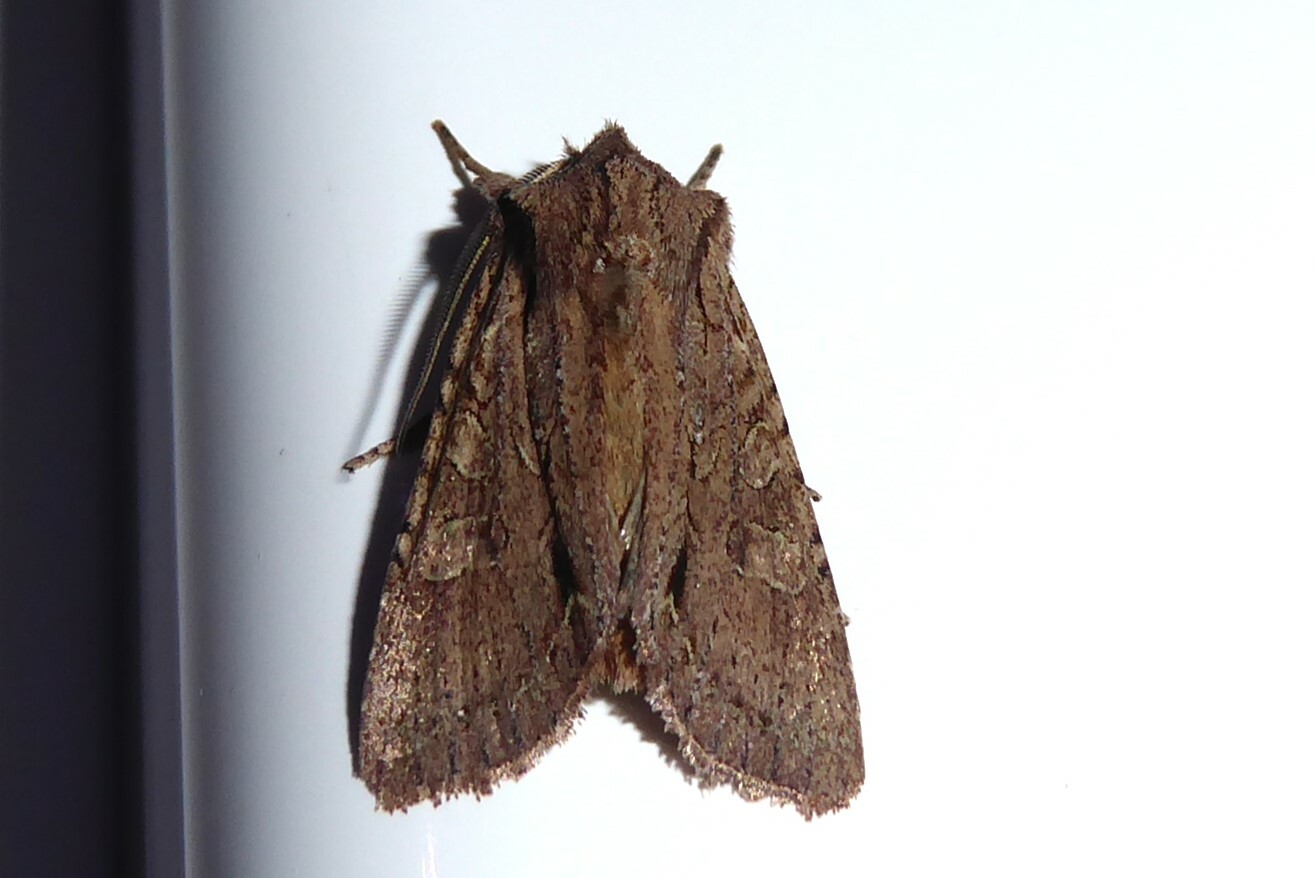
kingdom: Animalia
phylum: Arthropoda
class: Insecta
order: Lepidoptera
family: Noctuidae
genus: Ichneutica
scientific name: Ichneutica
